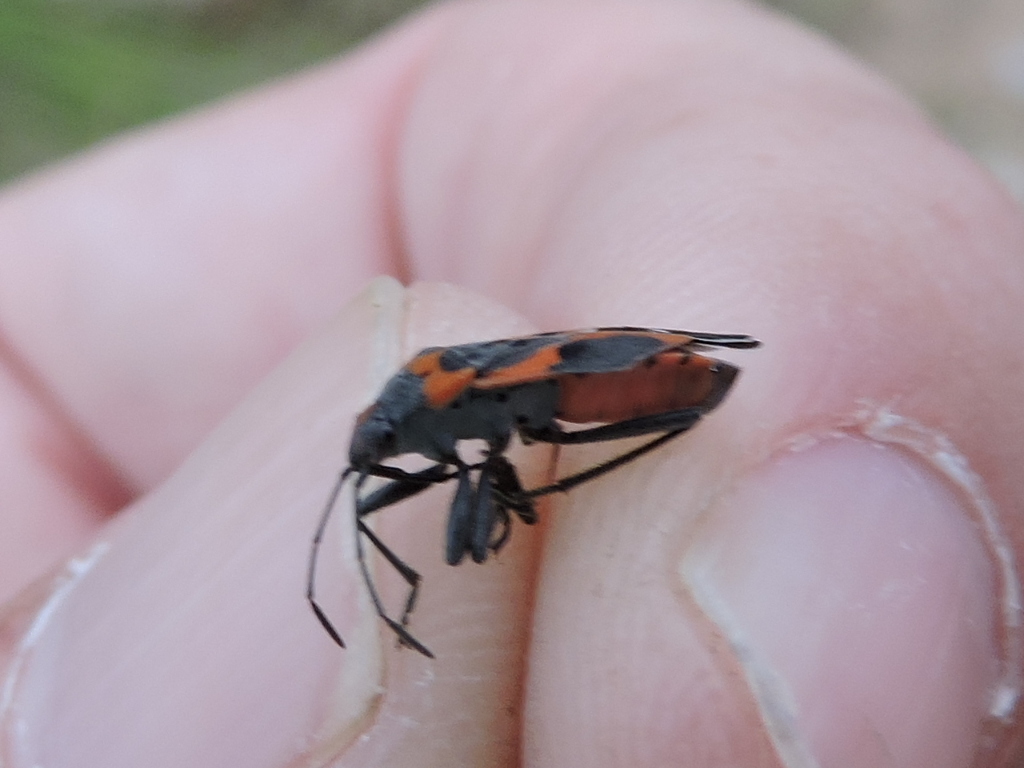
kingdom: Animalia
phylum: Arthropoda
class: Insecta
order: Hemiptera
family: Lygaeidae
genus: Lygaeus
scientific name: Lygaeus kalmii
